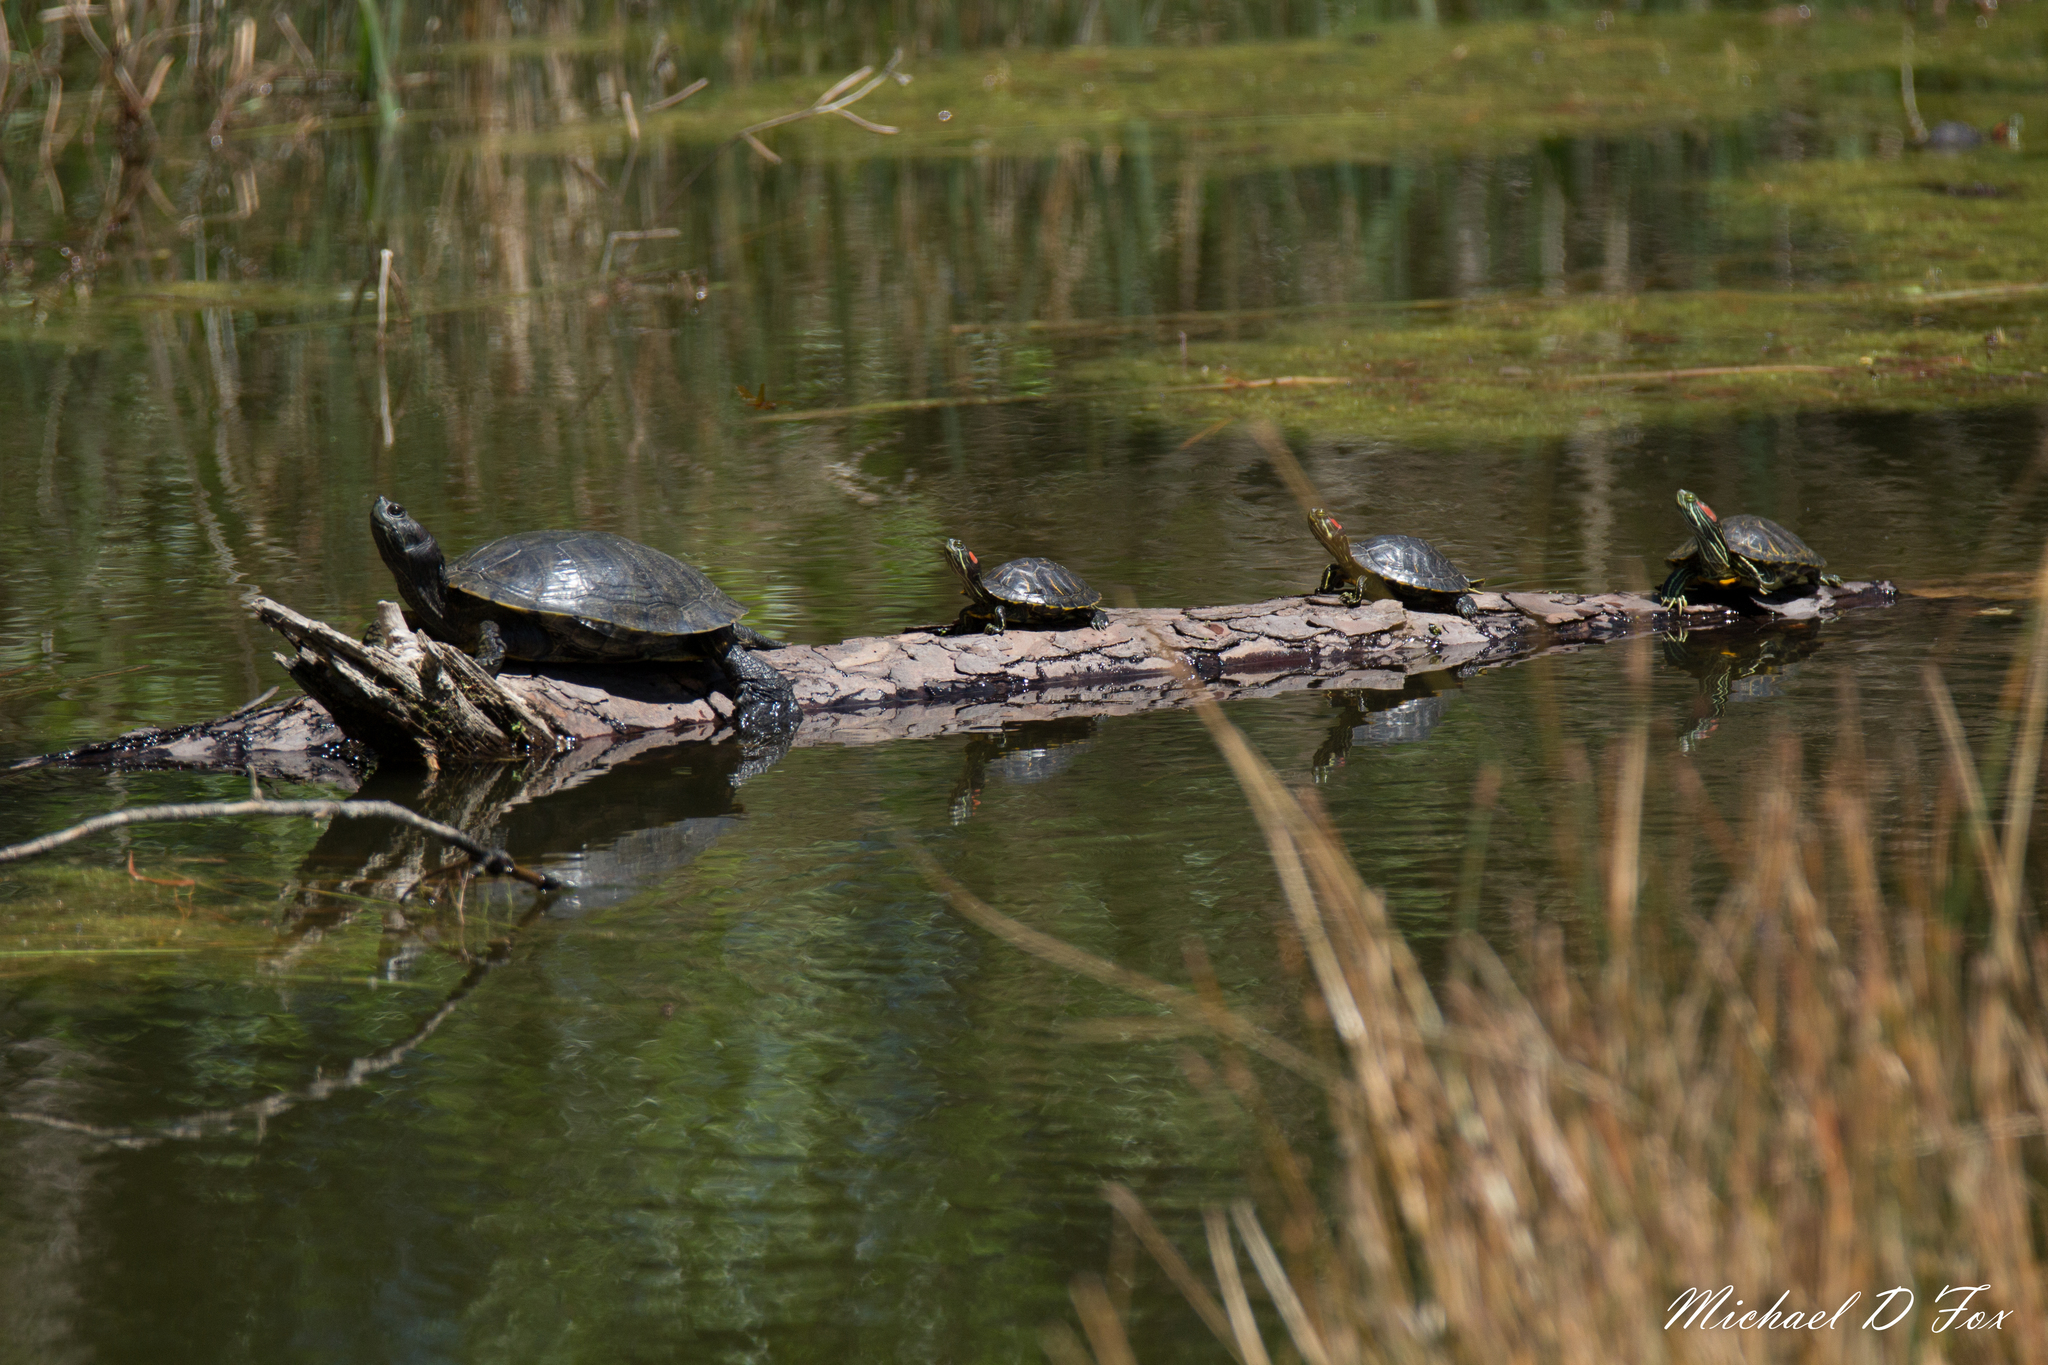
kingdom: Animalia
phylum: Chordata
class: Testudines
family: Emydidae
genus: Trachemys
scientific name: Trachemys scripta
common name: Slider
